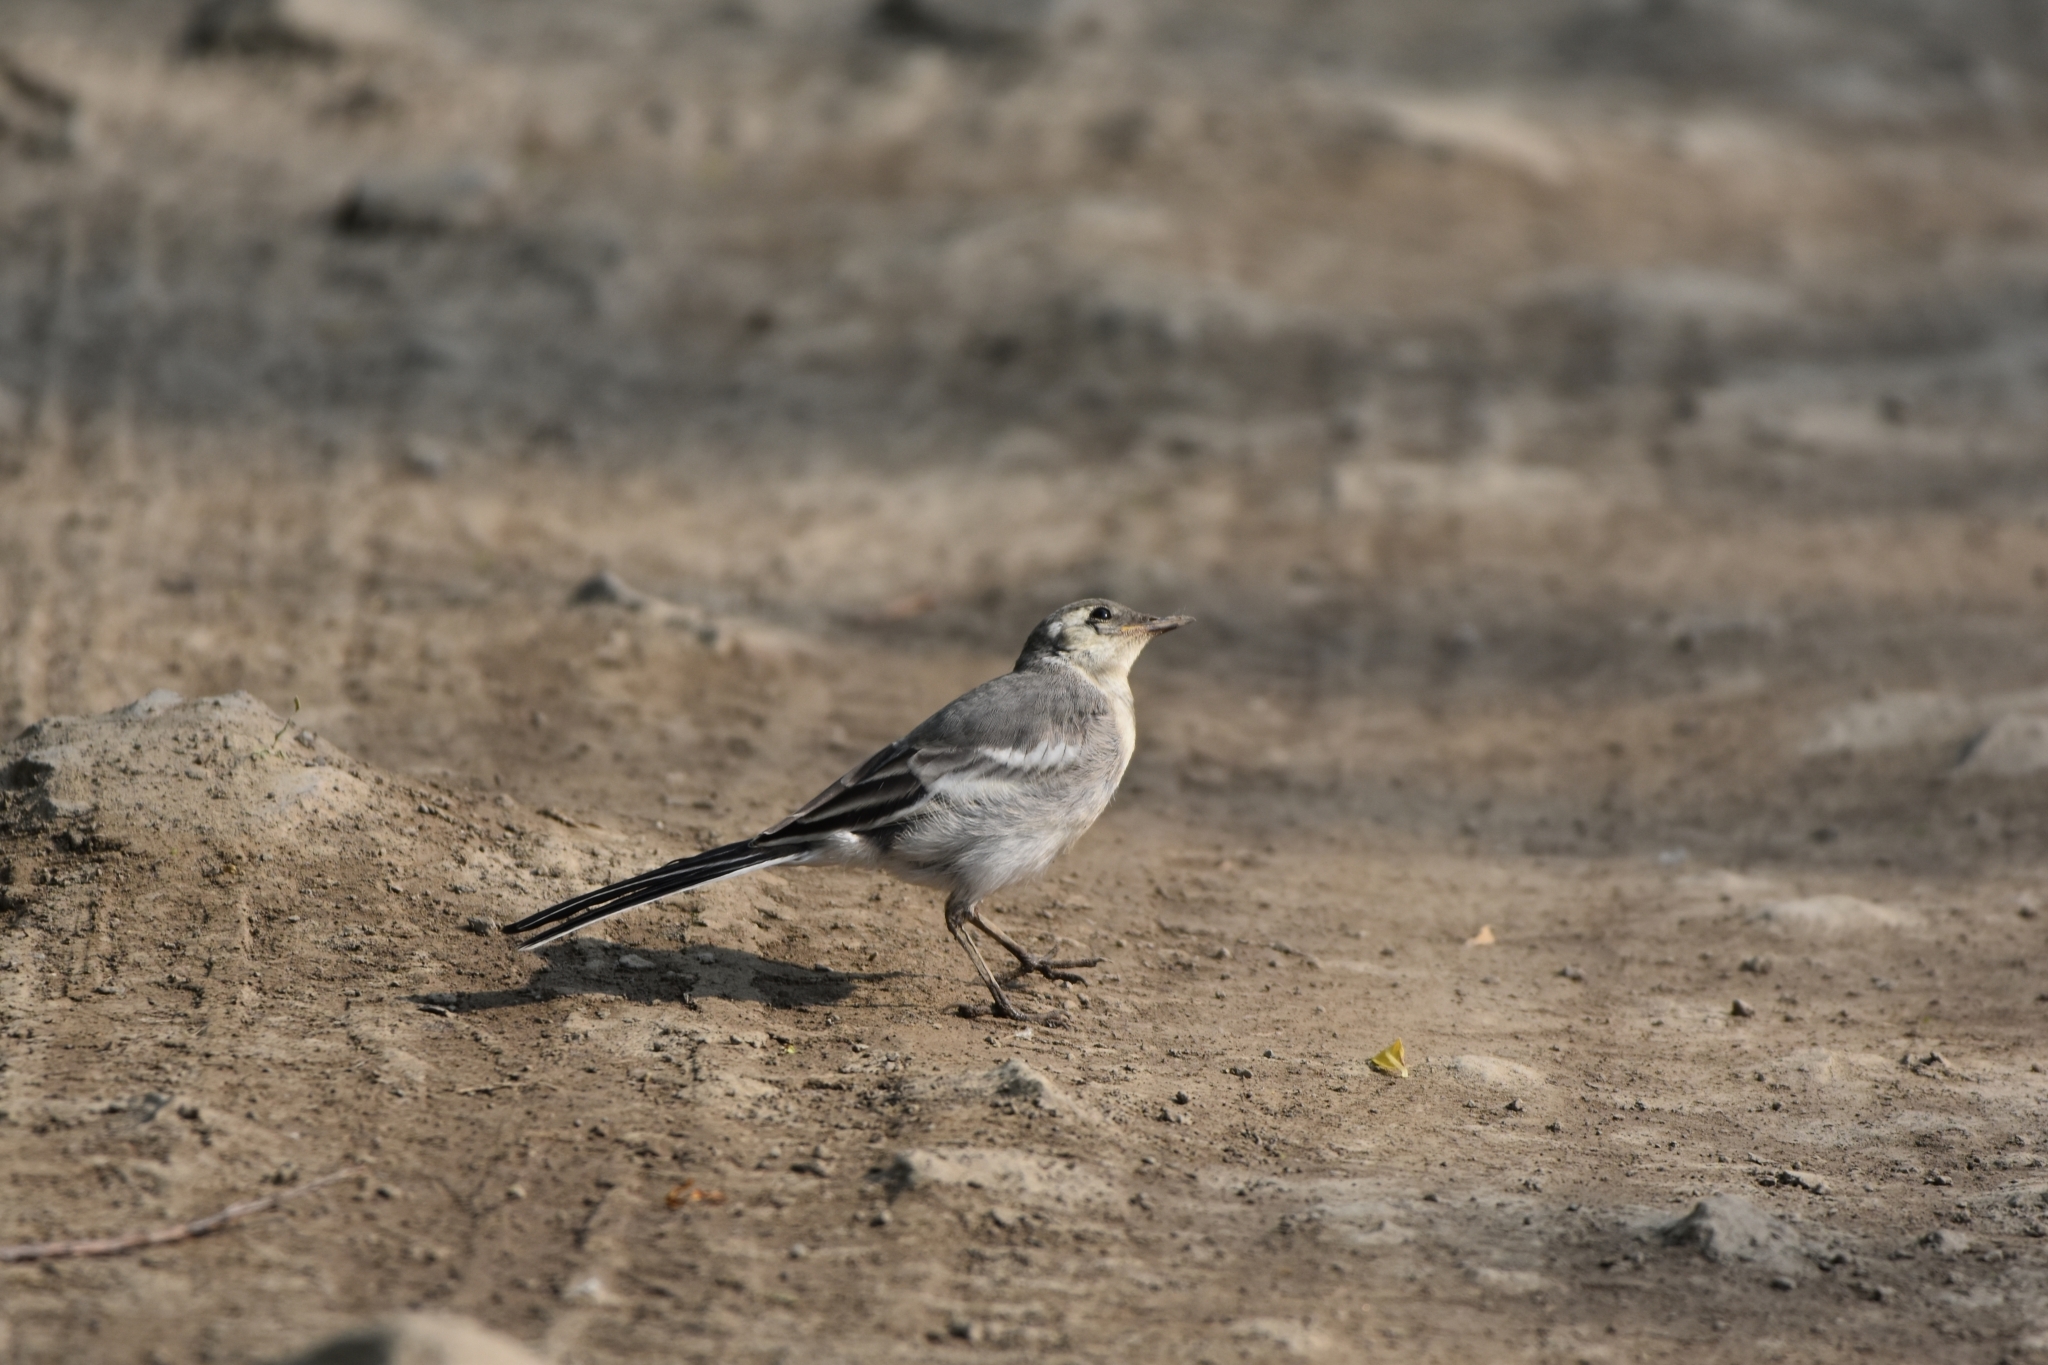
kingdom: Animalia
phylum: Chordata
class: Aves
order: Passeriformes
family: Motacillidae
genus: Motacilla
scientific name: Motacilla alba
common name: White wagtail
